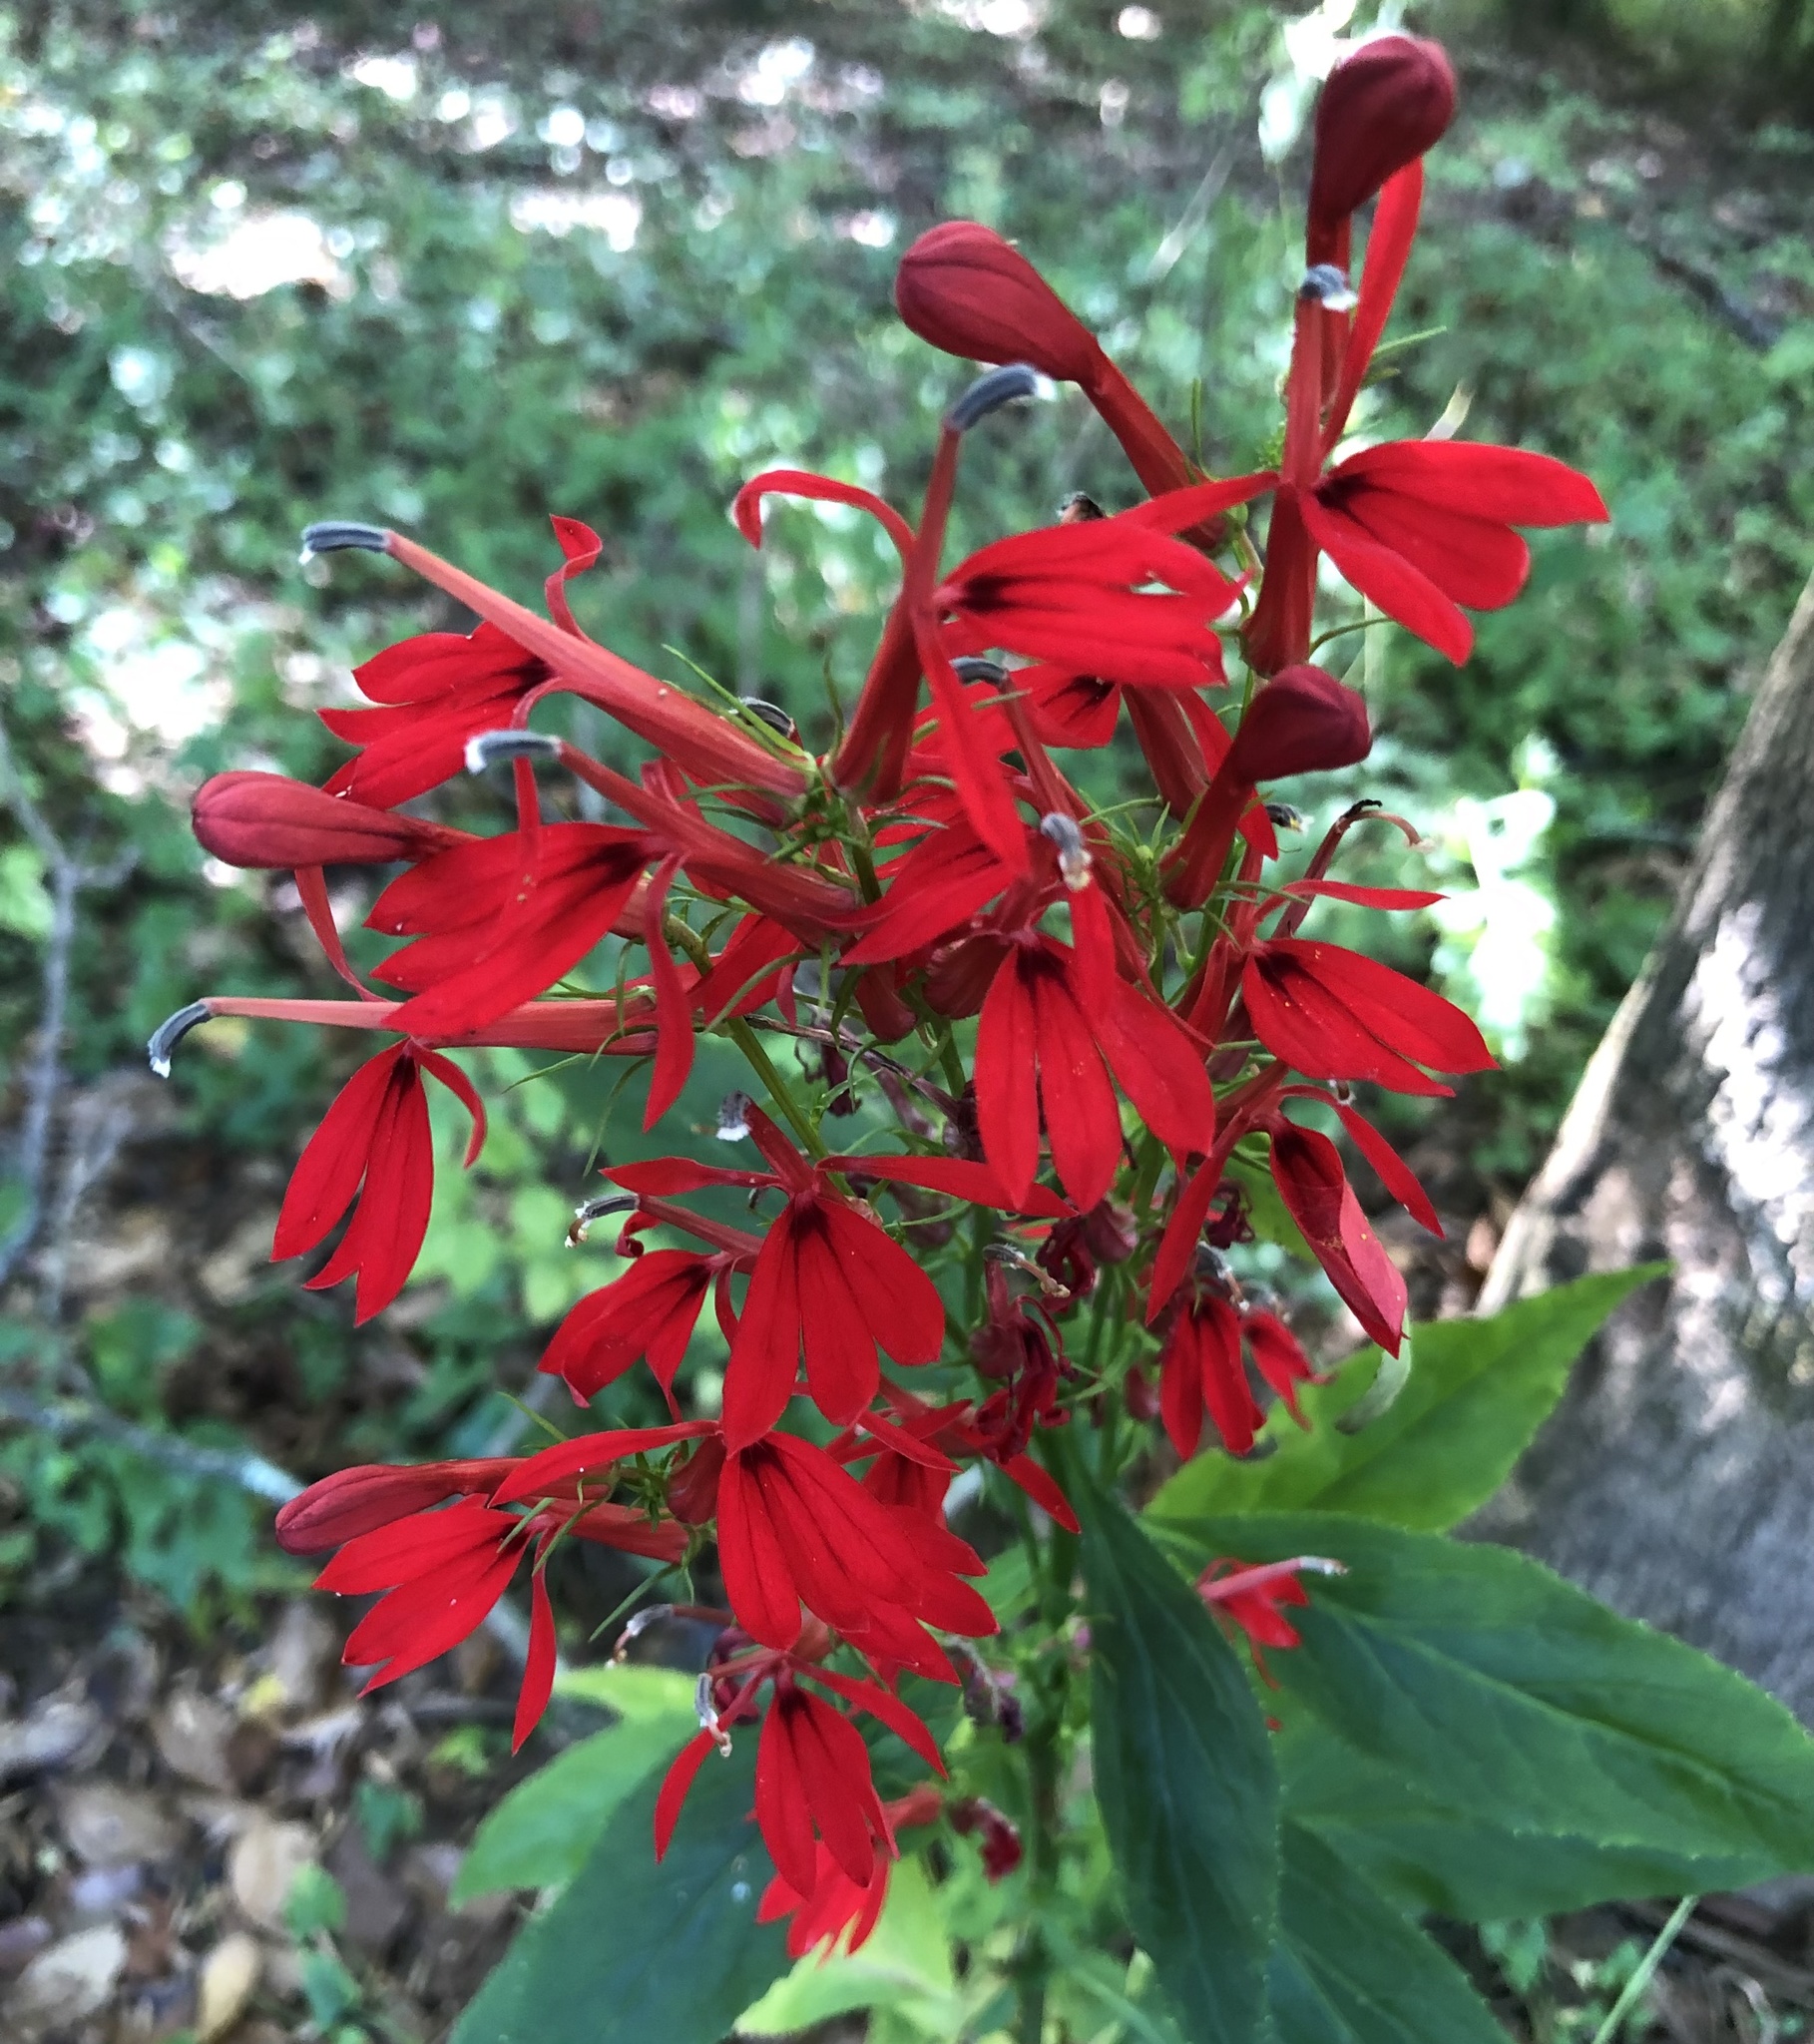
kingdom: Plantae
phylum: Tracheophyta
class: Magnoliopsida
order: Asterales
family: Campanulaceae
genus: Lobelia
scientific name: Lobelia cardinalis
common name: Cardinal flower
